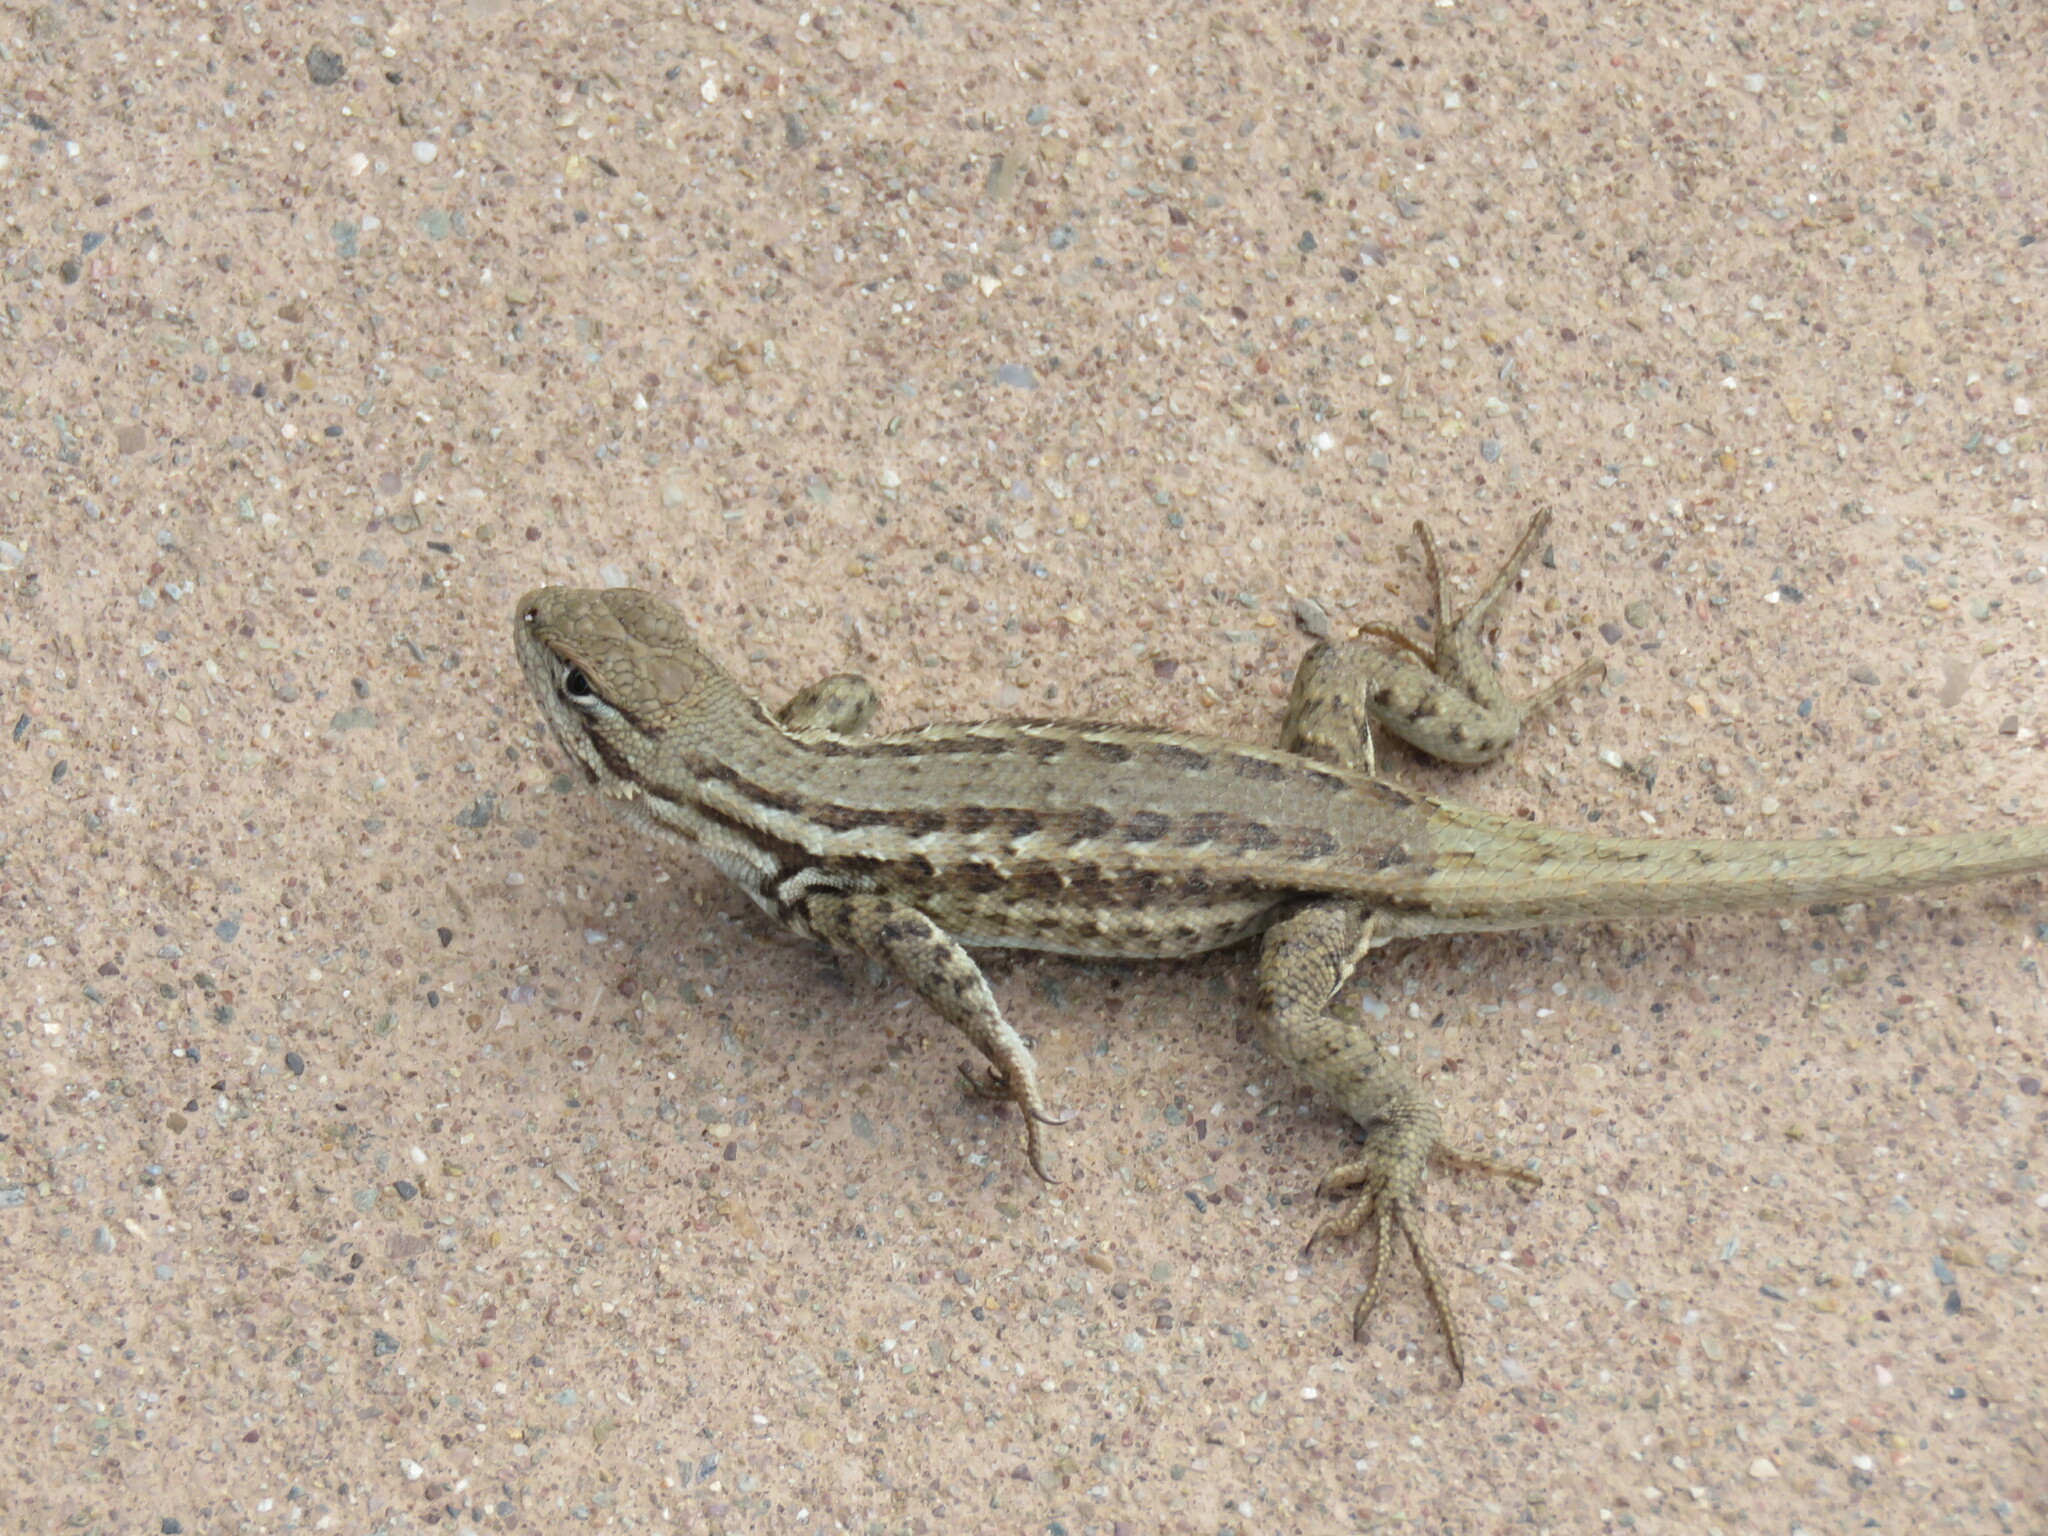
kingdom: Animalia
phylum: Chordata
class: Squamata
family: Phrynosomatidae
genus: Sceloporus
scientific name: Sceloporus graciosus
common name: Sagebrush lizard
